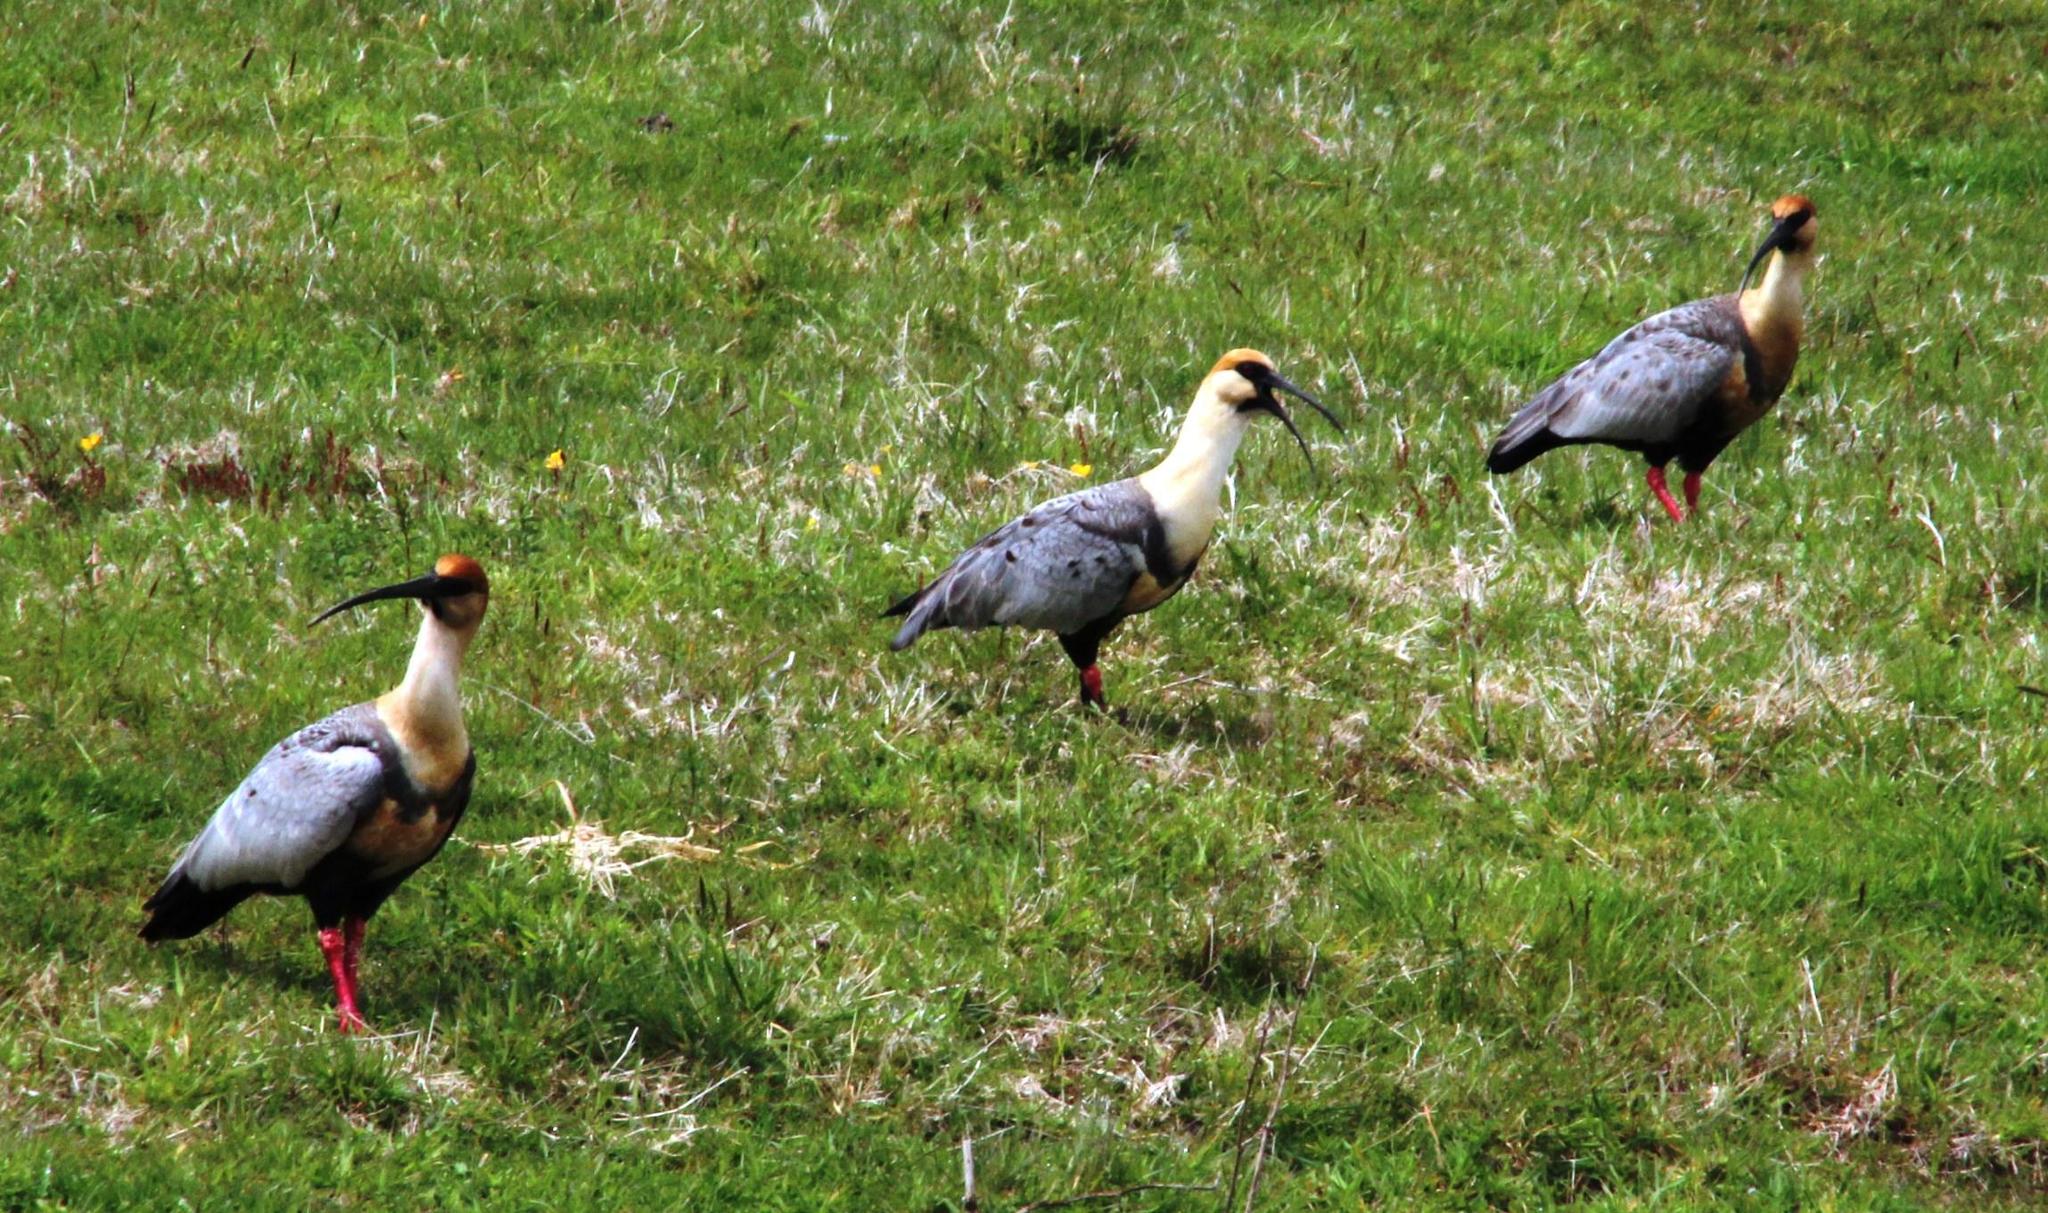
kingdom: Animalia
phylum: Chordata
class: Aves
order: Pelecaniformes
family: Threskiornithidae
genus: Theristicus
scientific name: Theristicus melanopis
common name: Black-faced ibis
